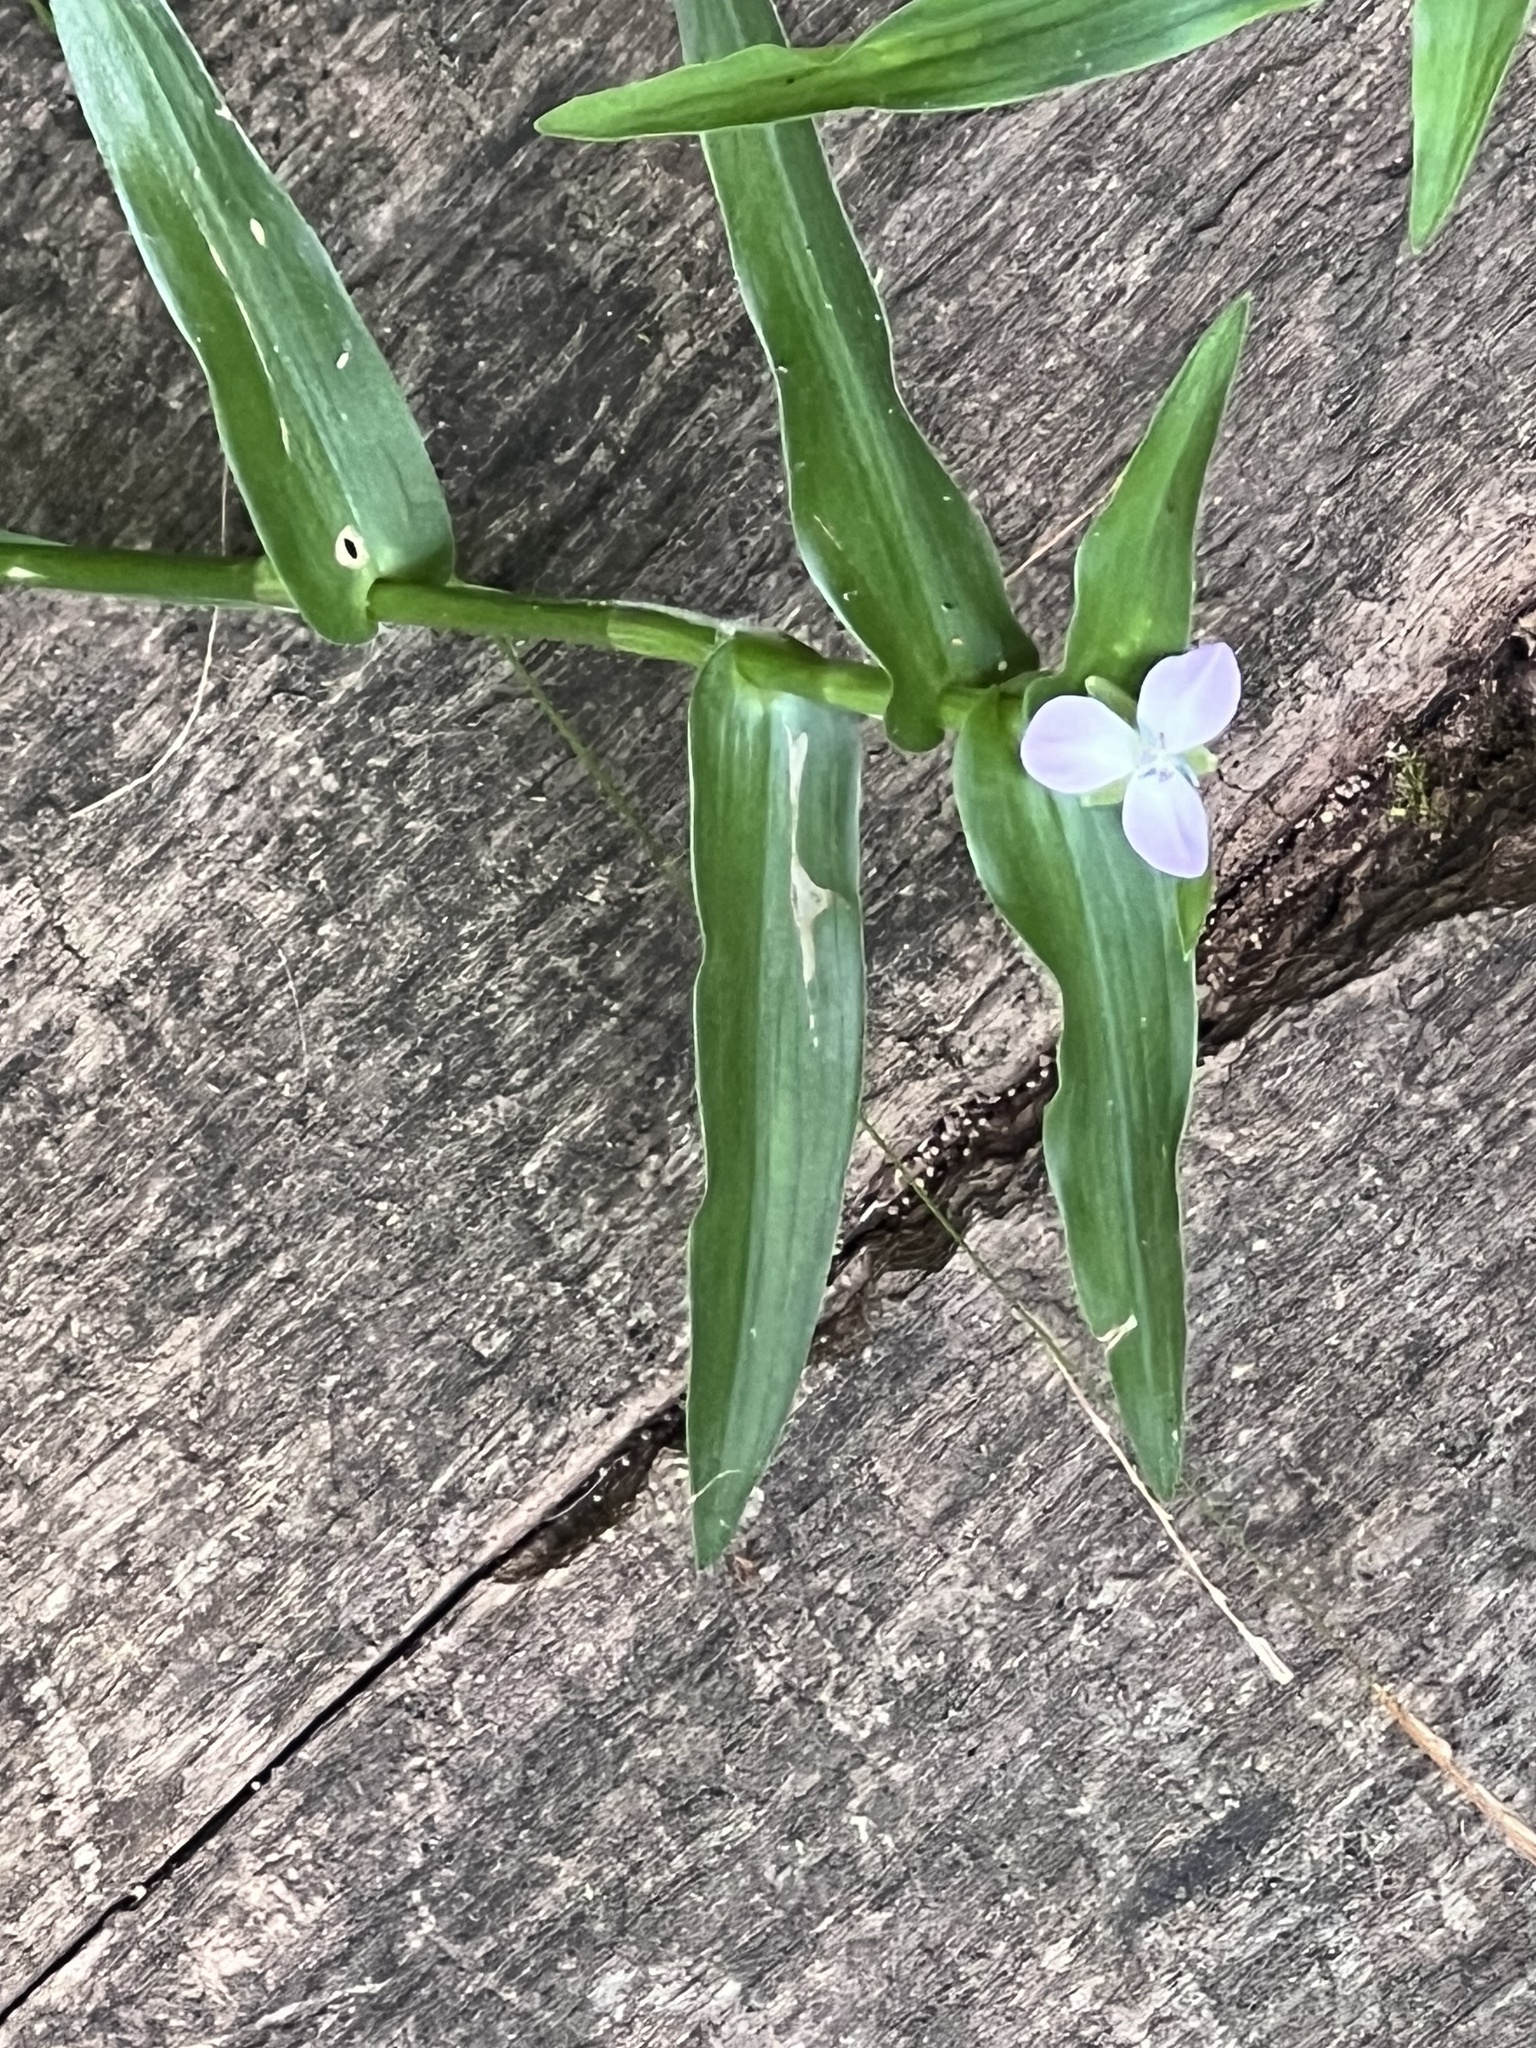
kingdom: Plantae
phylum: Tracheophyta
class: Liliopsida
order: Commelinales
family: Commelinaceae
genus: Murdannia
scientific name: Murdannia keisak
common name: Wartremoving herb
